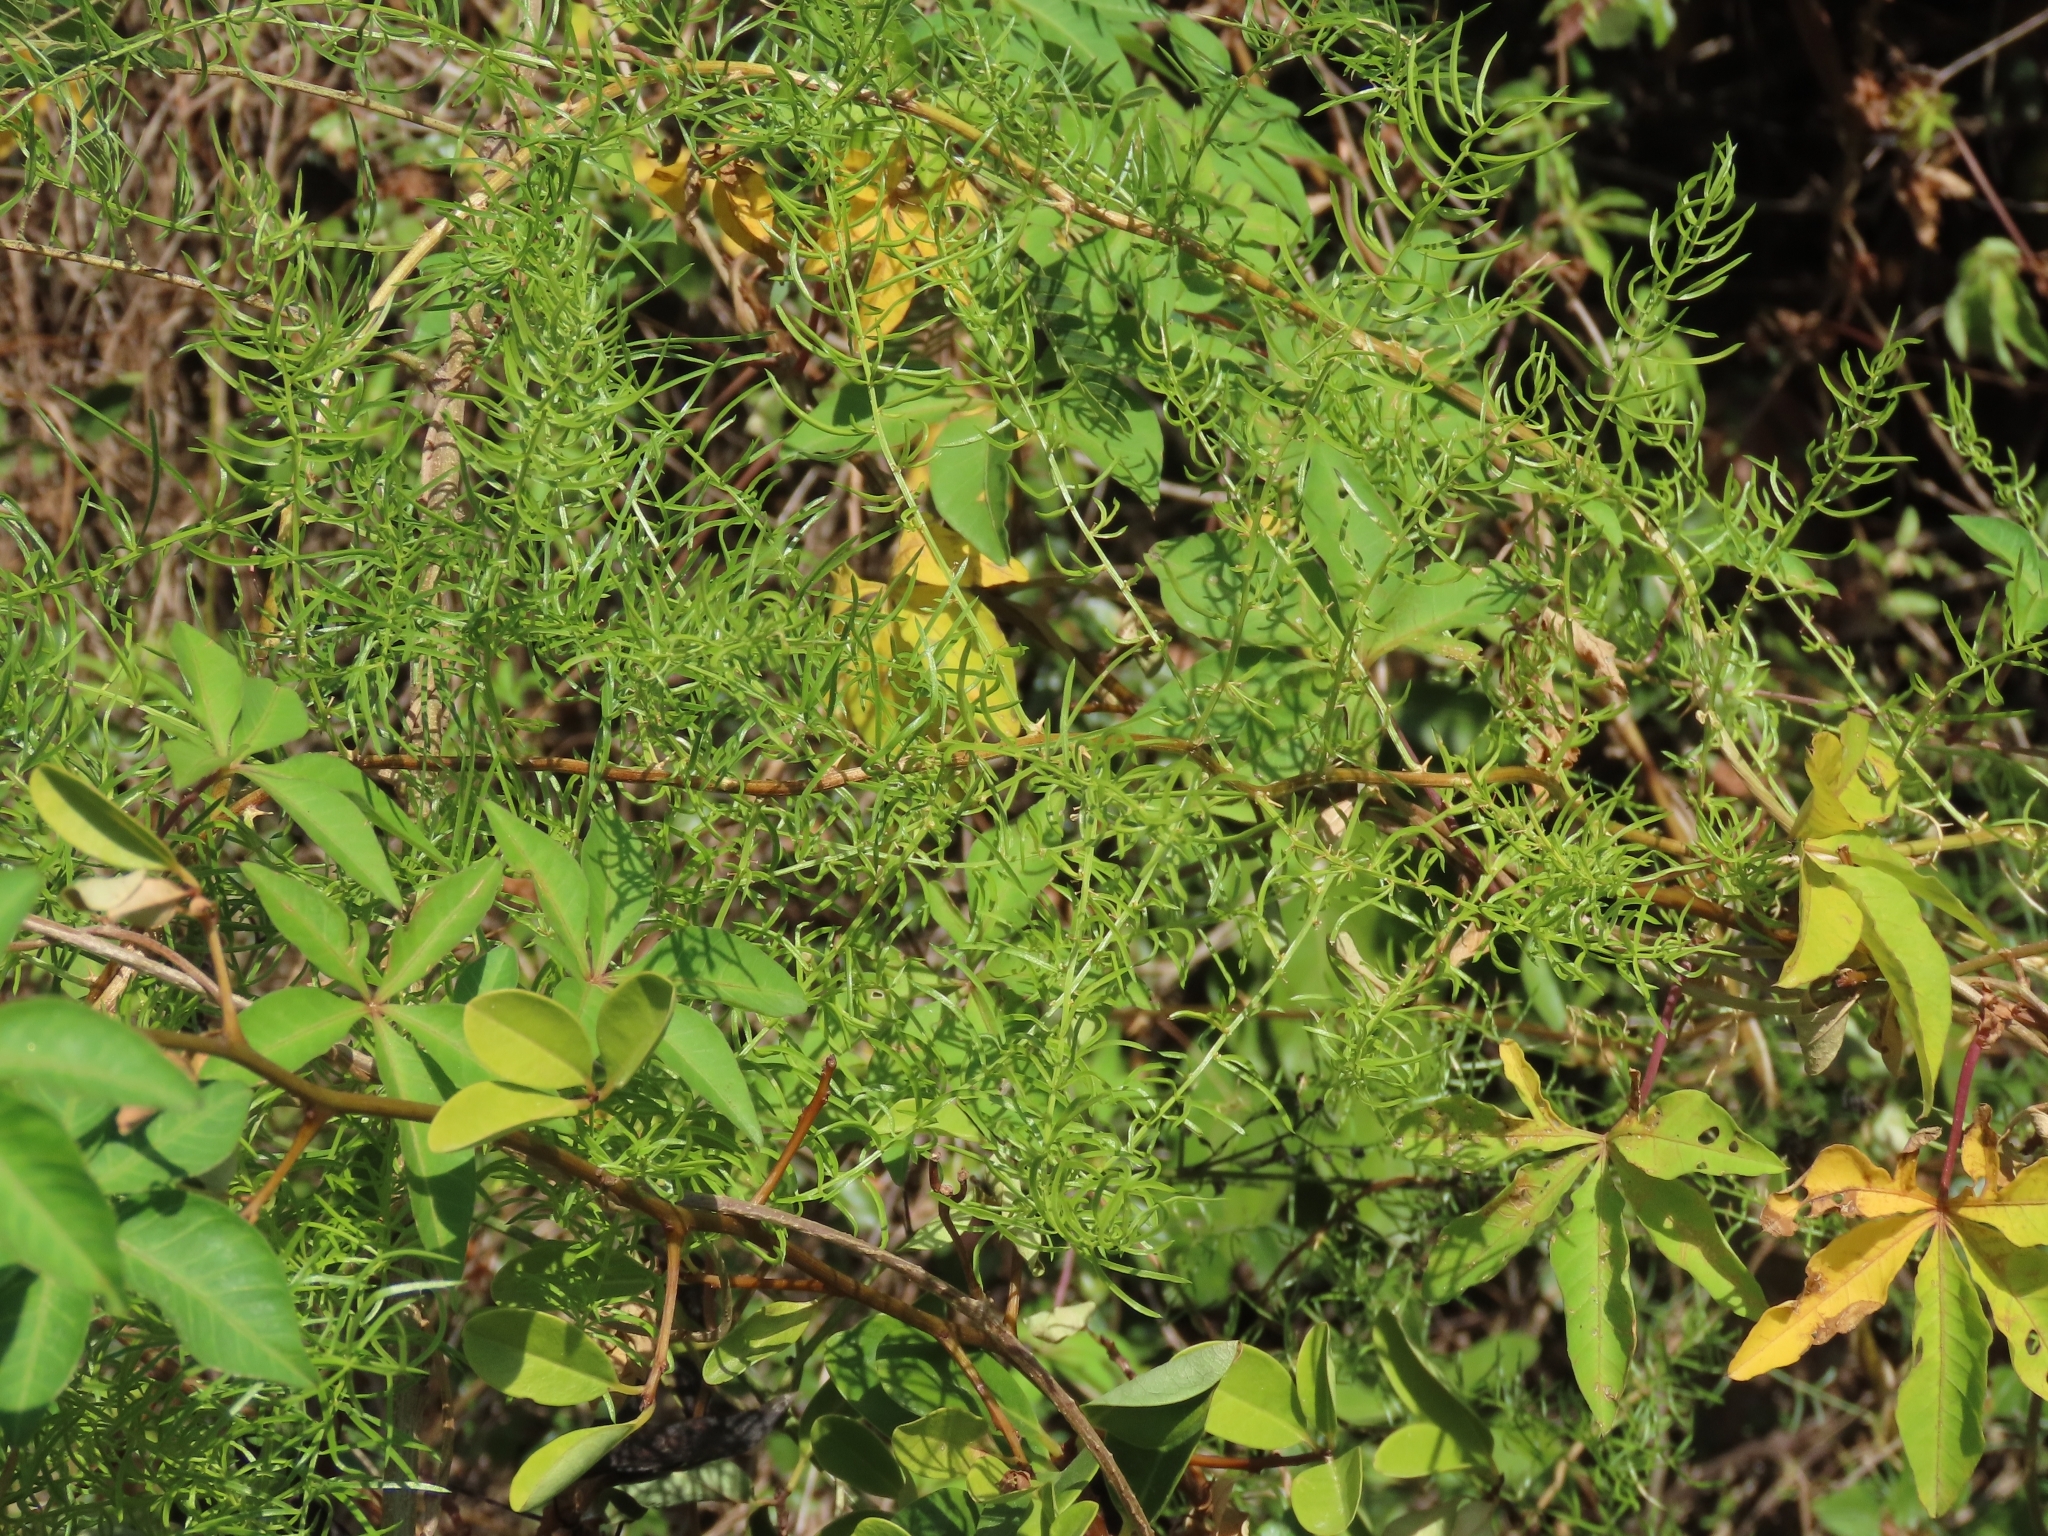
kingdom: Plantae
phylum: Tracheophyta
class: Liliopsida
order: Asparagales
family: Asparagaceae
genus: Asparagus
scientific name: Asparagus cochinchinensis
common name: Chinese asparagus
